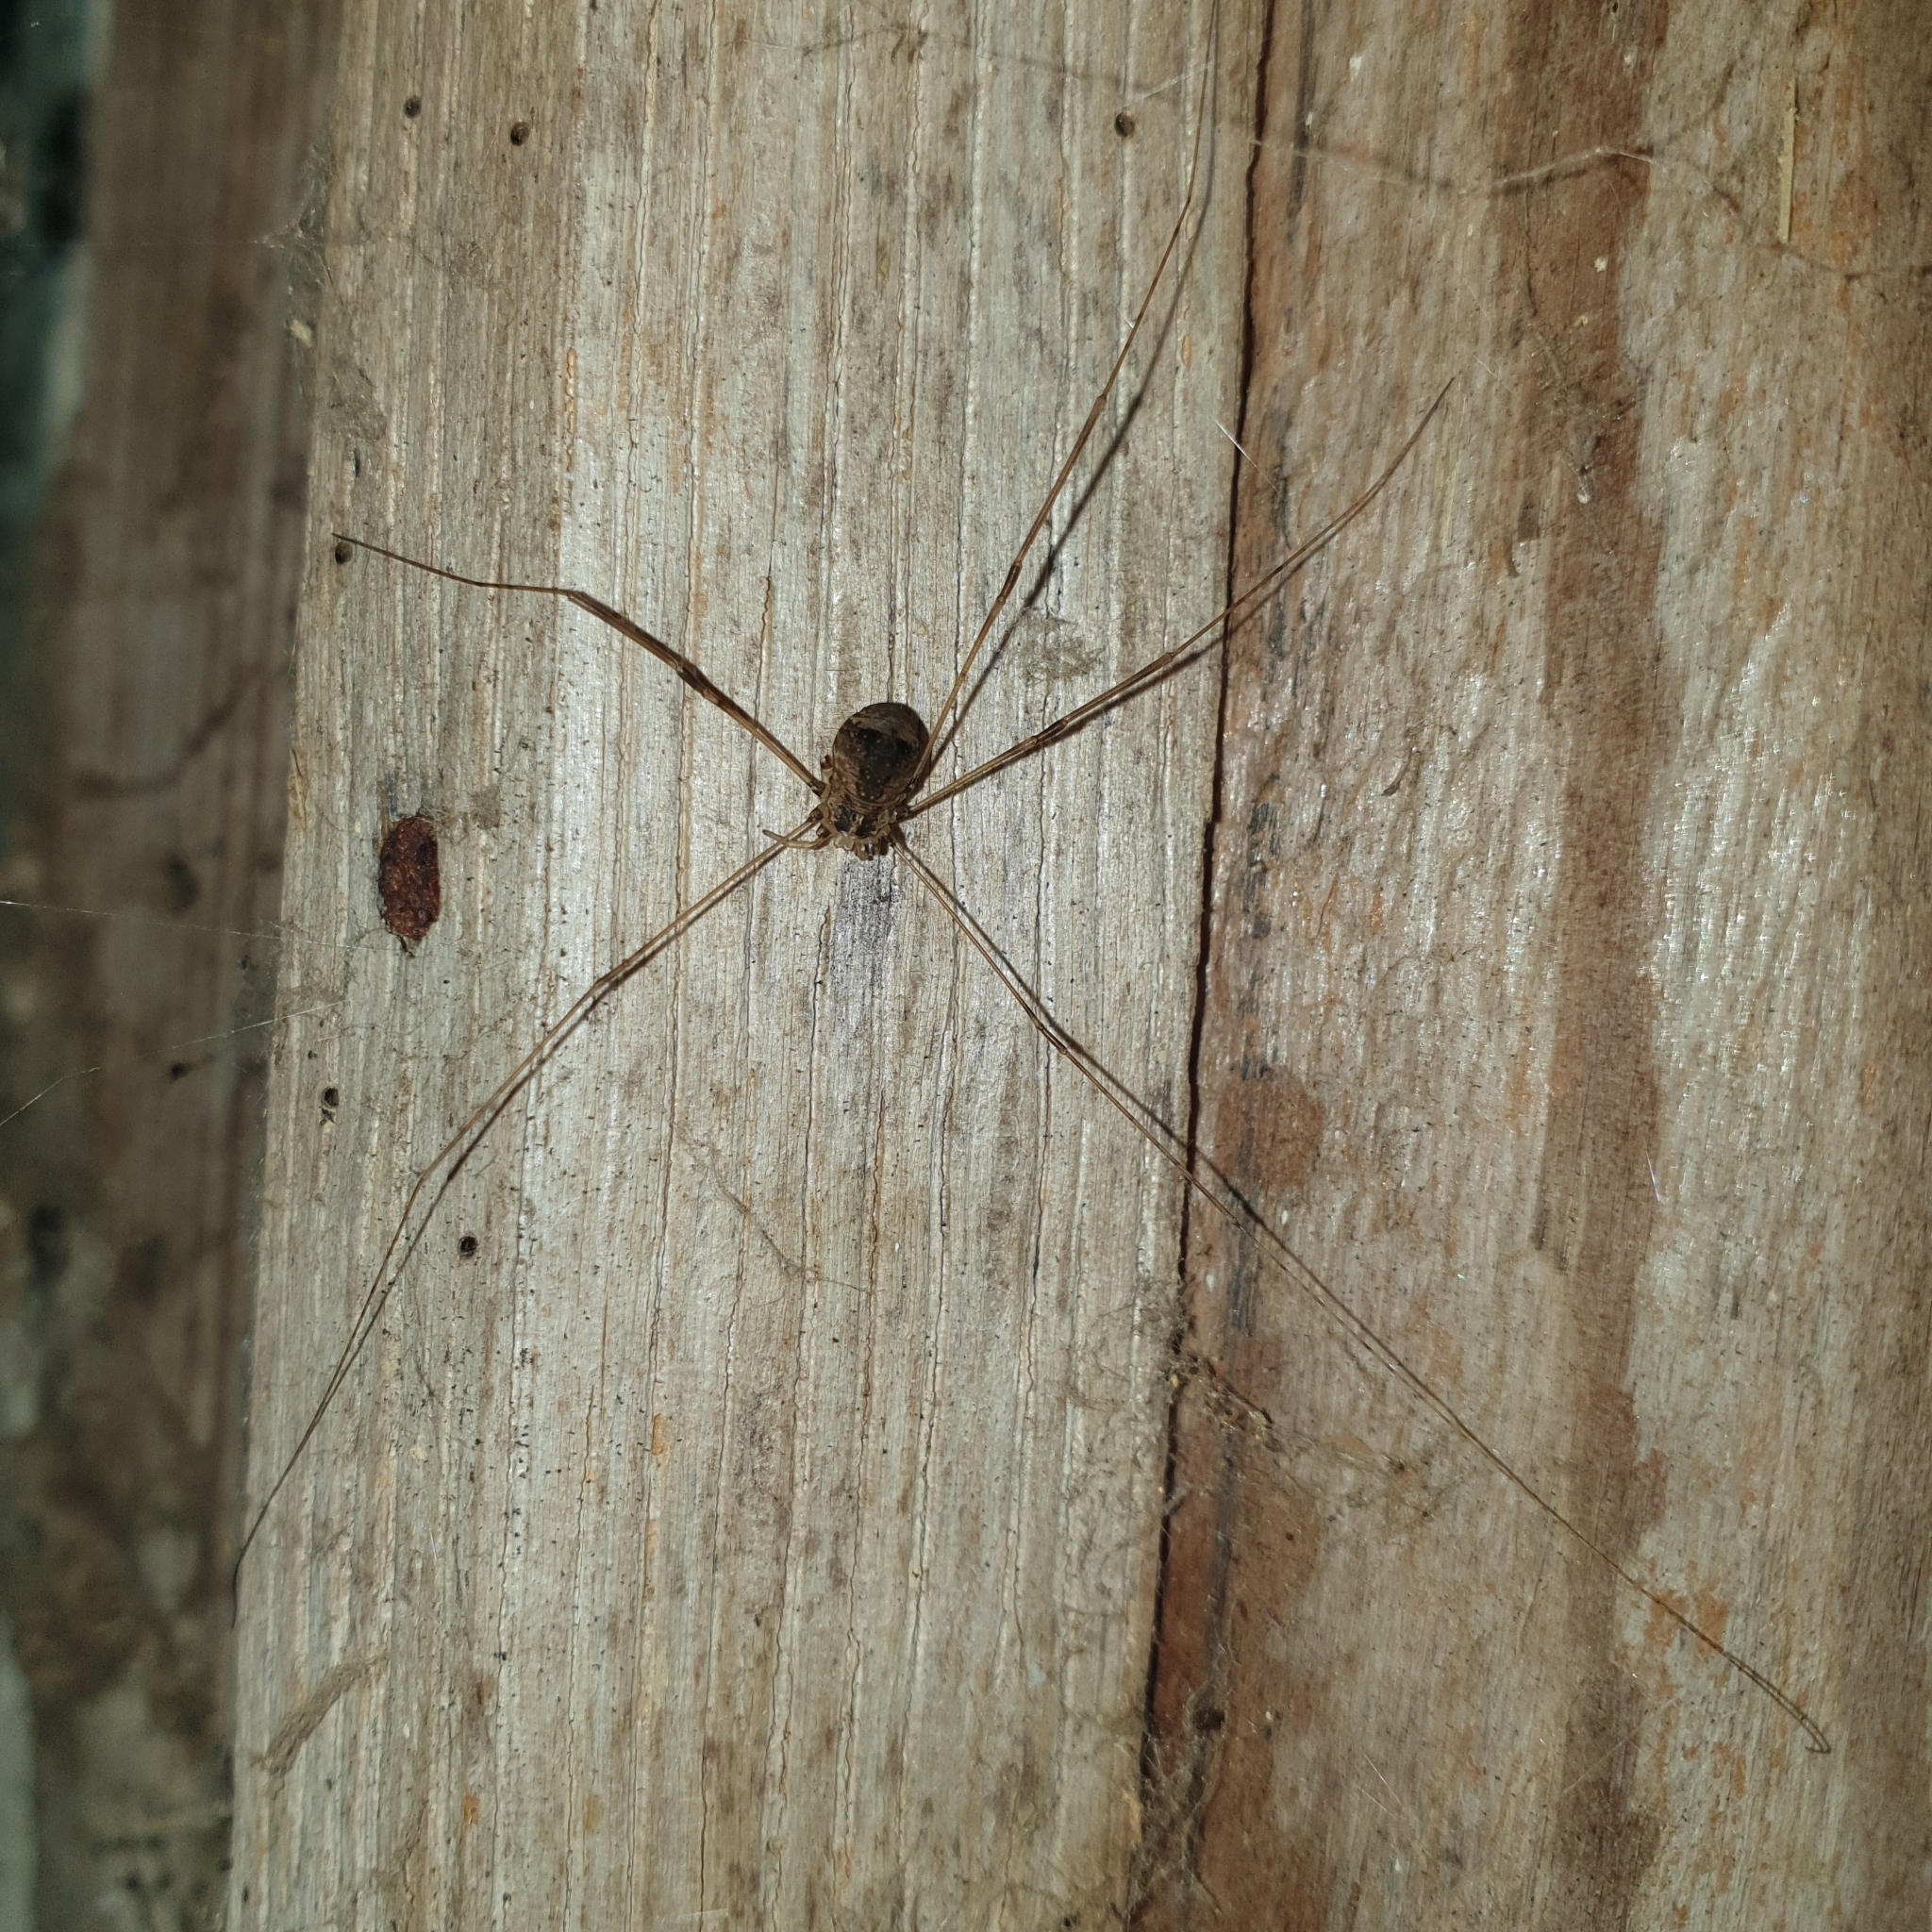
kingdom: Animalia
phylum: Arthropoda
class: Arachnida
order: Opiliones
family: Sclerosomatidae
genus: Leiobunum
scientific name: Leiobunum blackwalli
